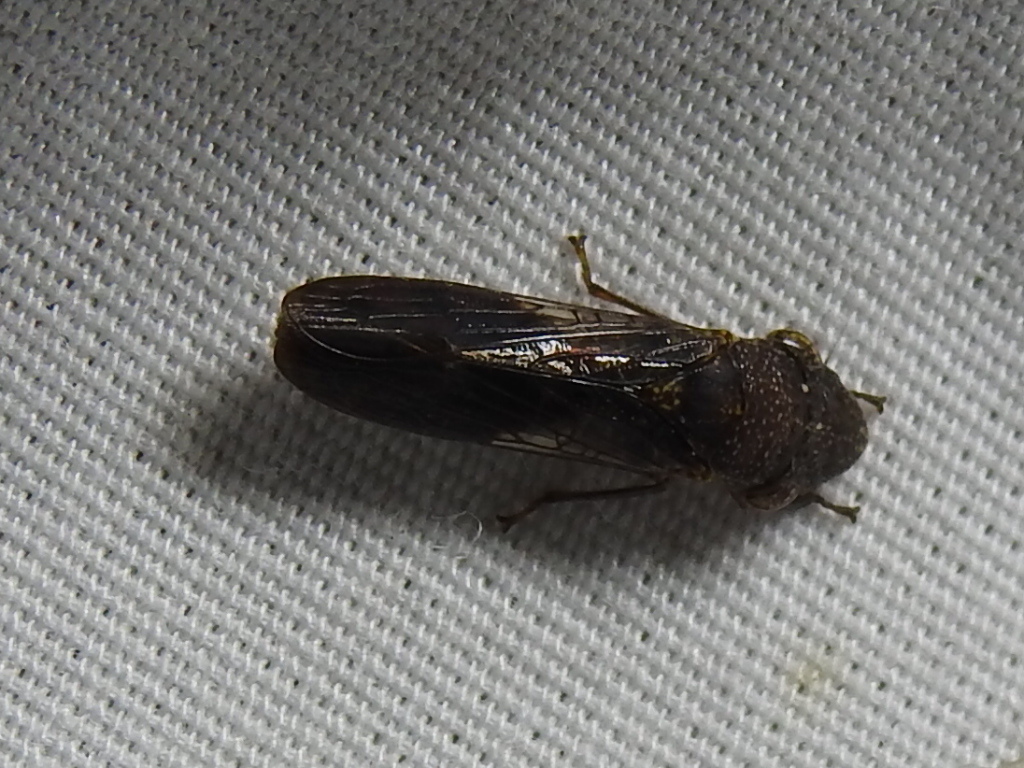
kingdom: Animalia
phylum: Arthropoda
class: Insecta
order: Hemiptera
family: Cicadellidae
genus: Homalodisca
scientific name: Homalodisca vitripennis
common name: Glassy-winged sharpshooter
